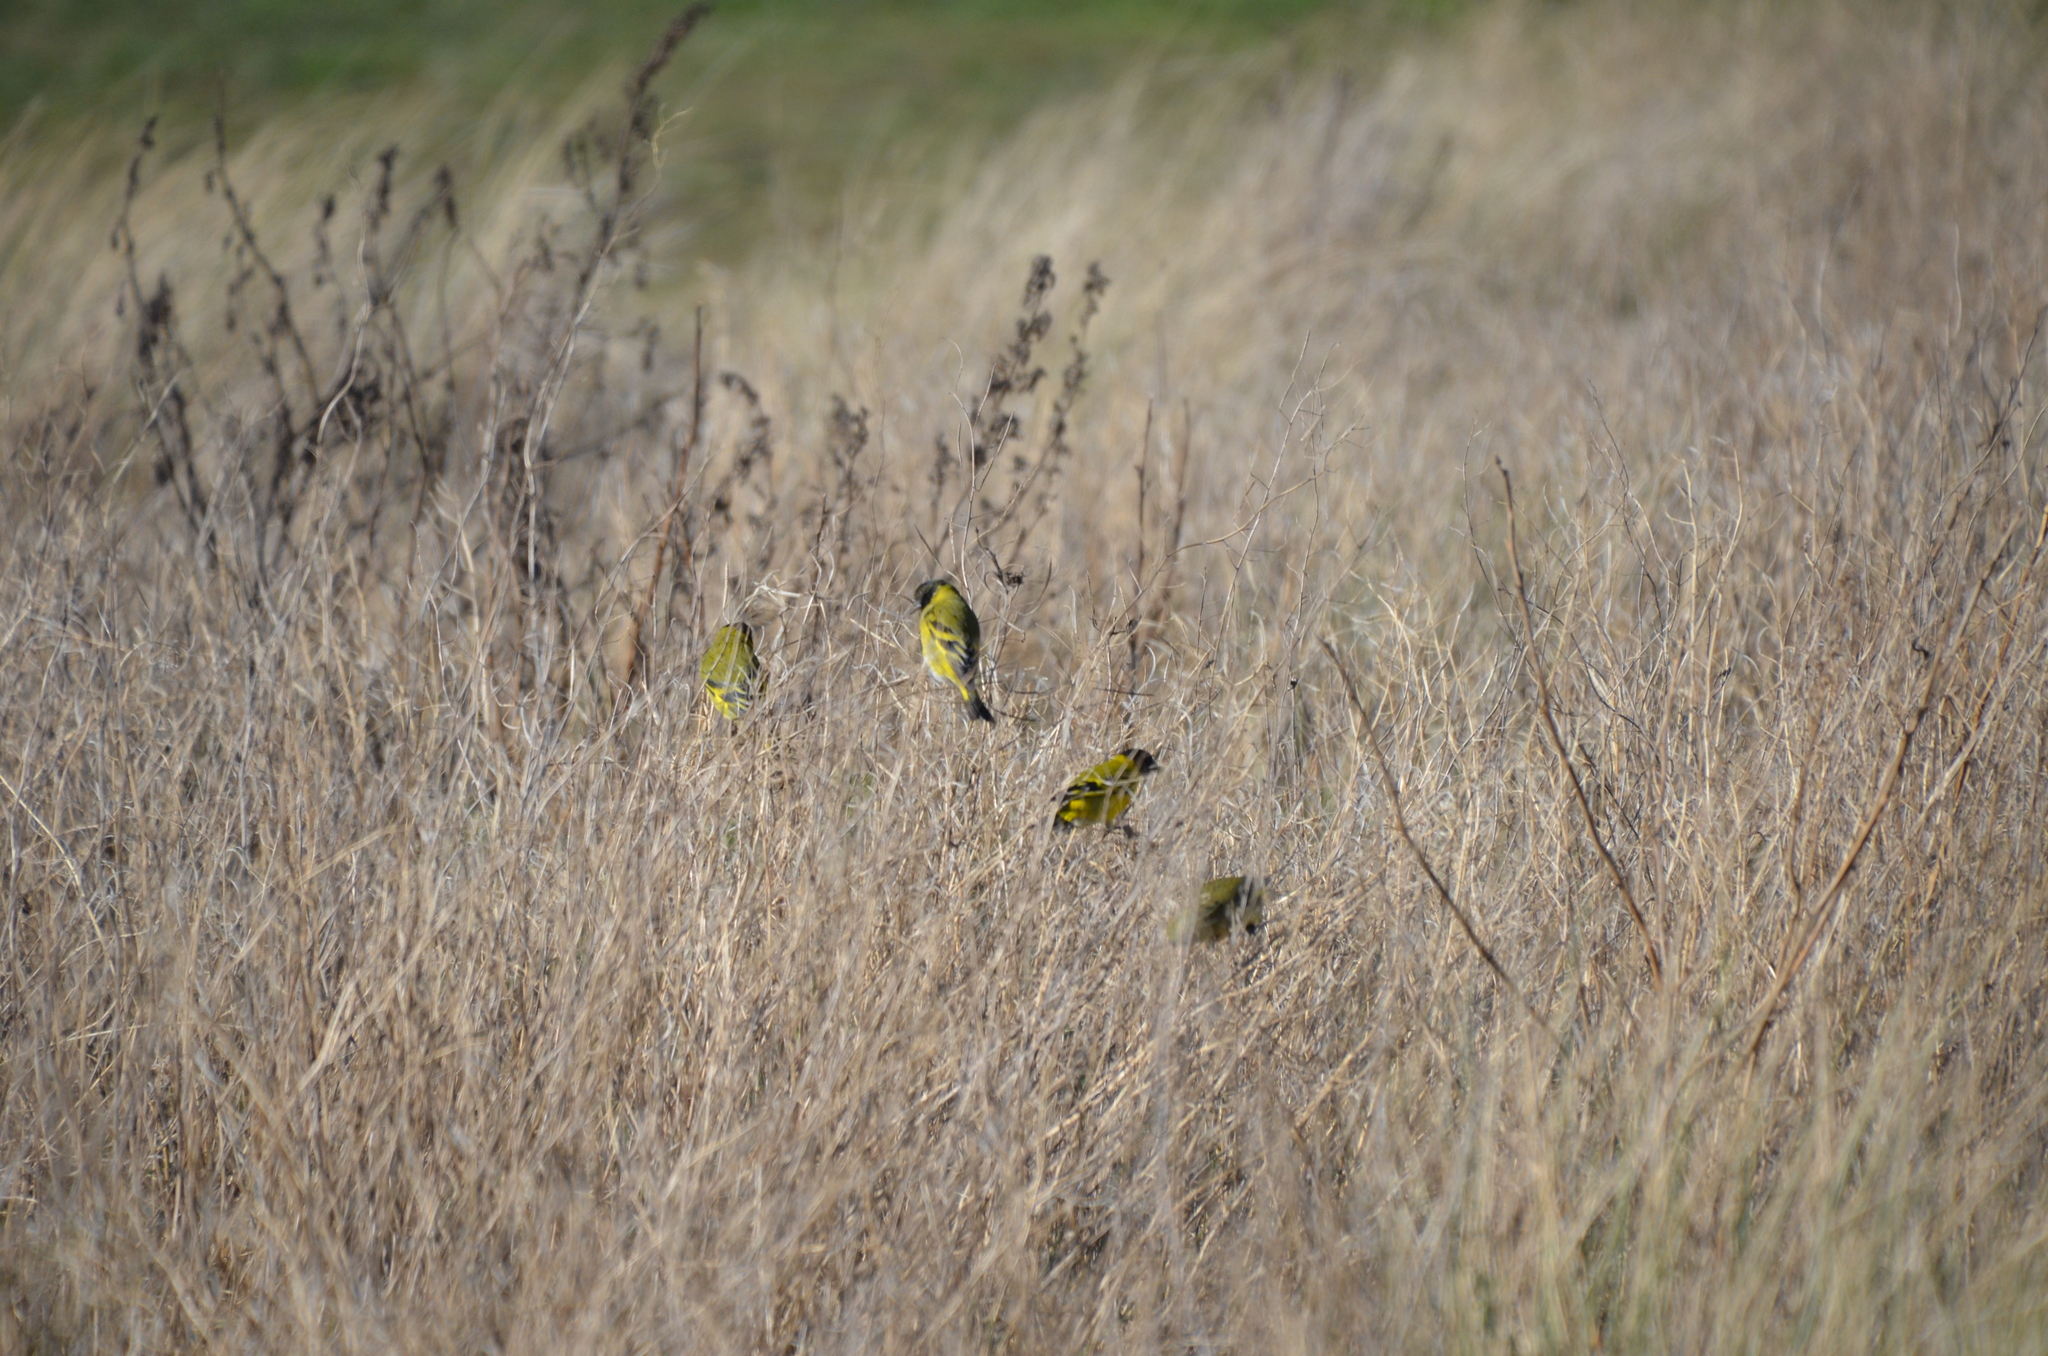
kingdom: Animalia
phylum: Chordata
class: Aves
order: Passeriformes
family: Fringillidae
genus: Spinus
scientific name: Spinus magellanicus
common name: Hooded siskin
